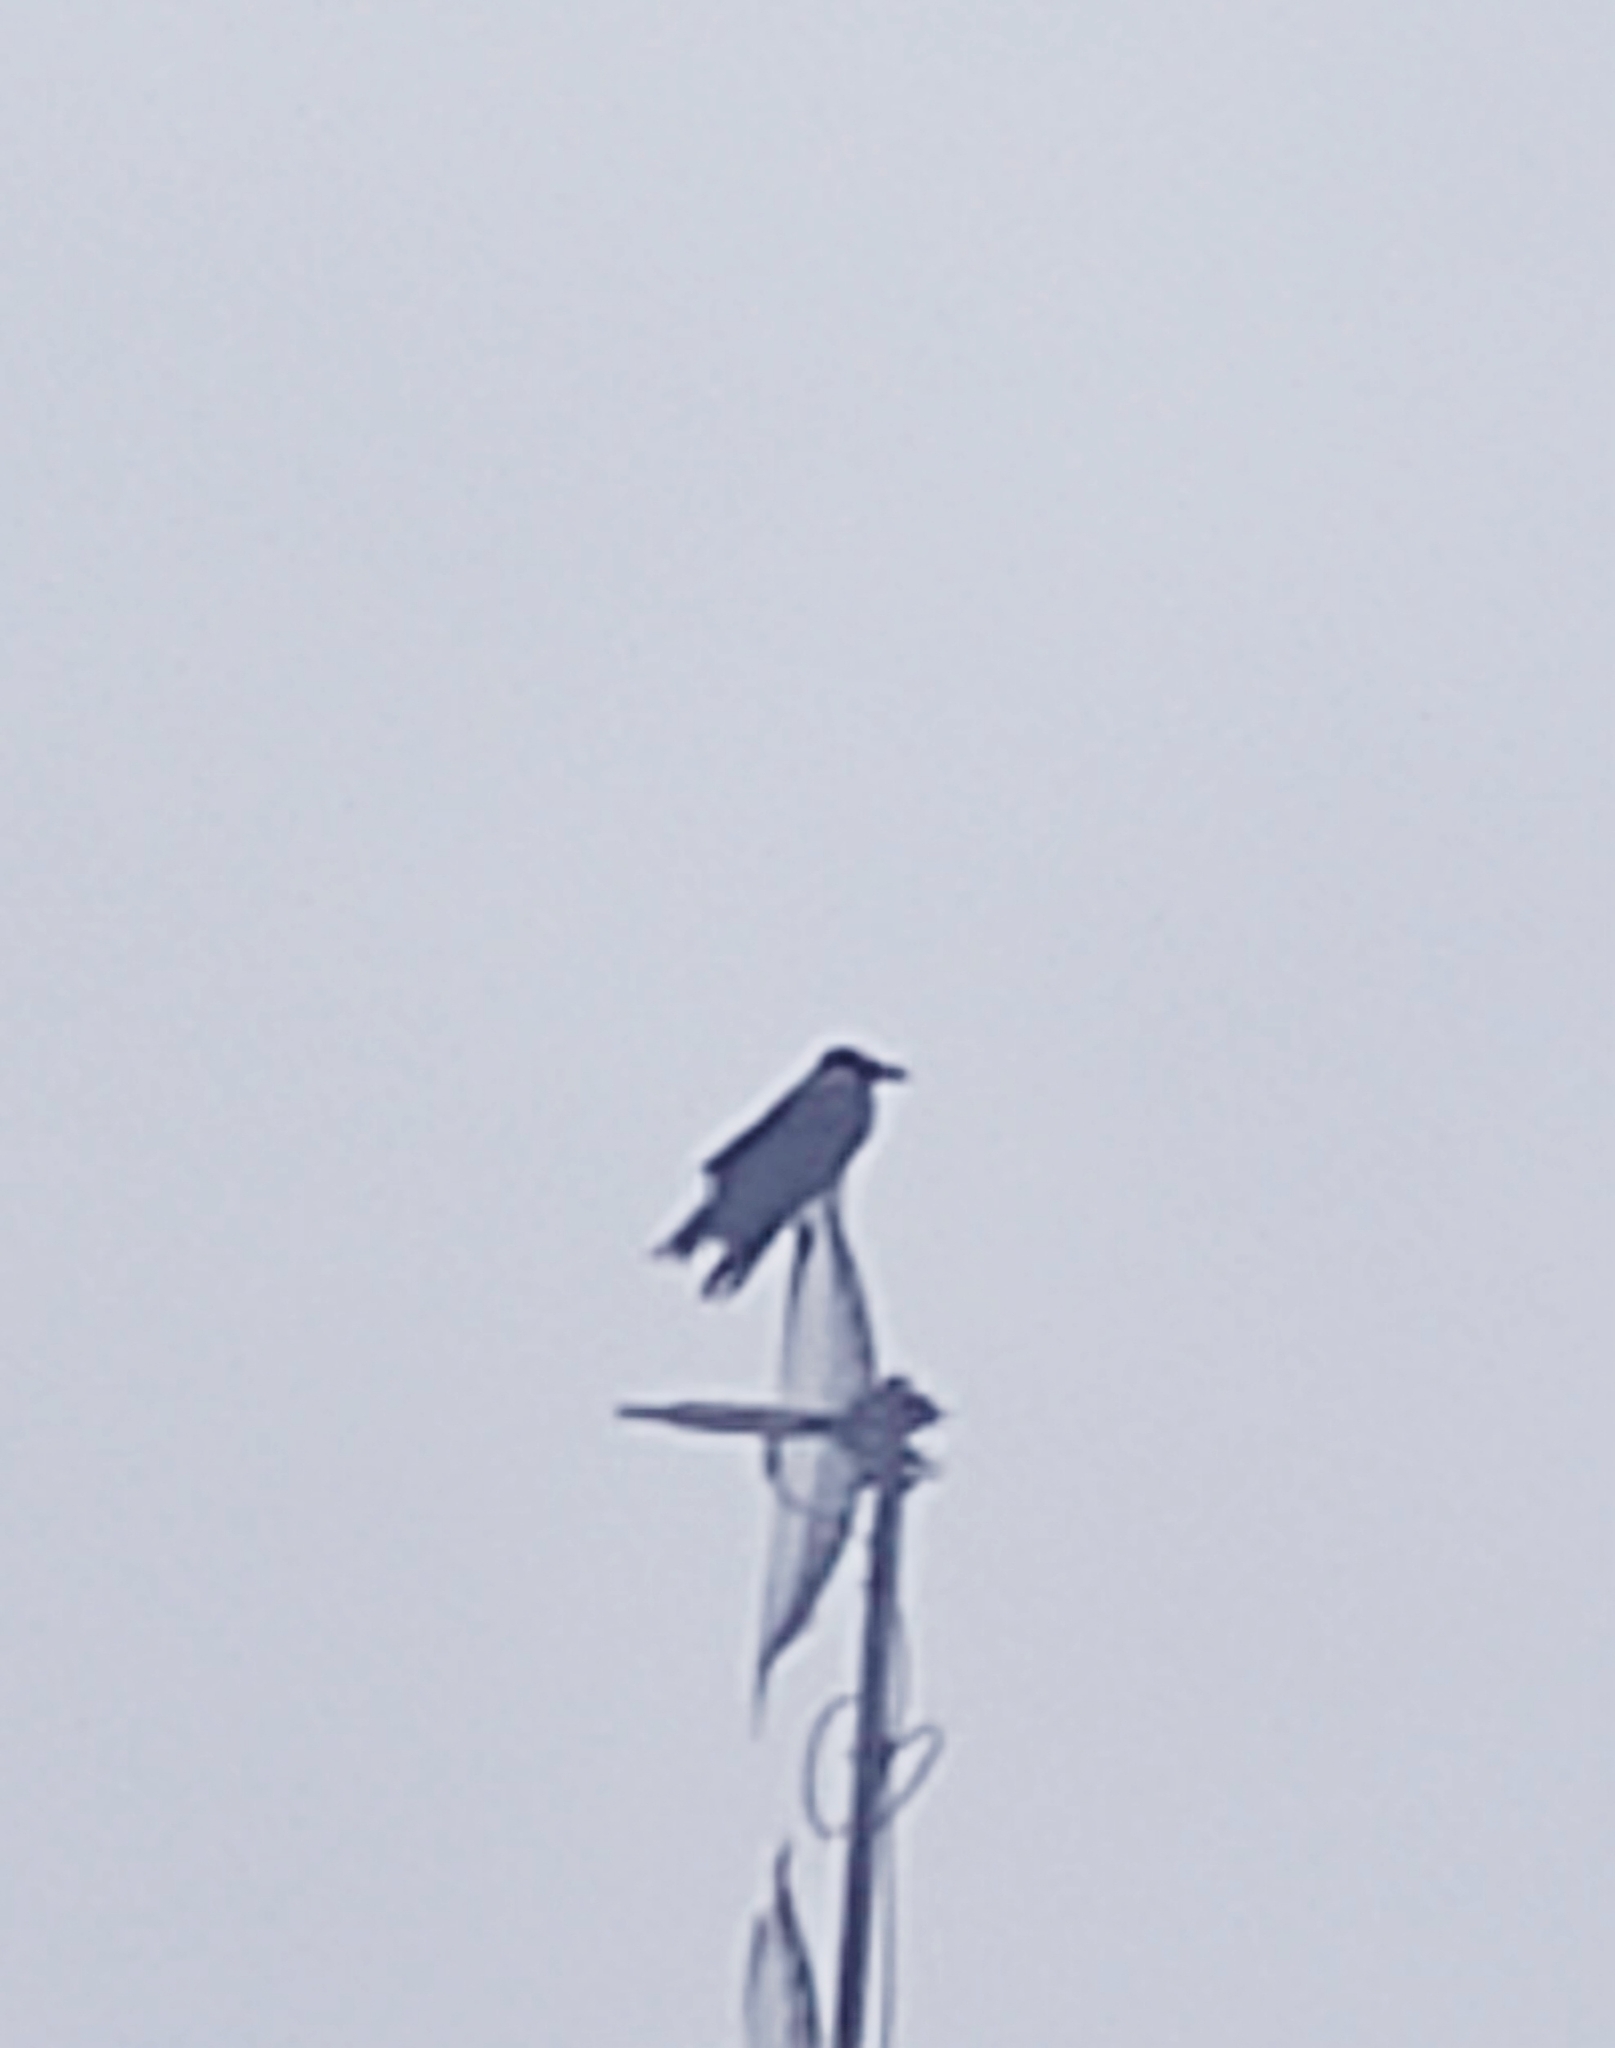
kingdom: Animalia
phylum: Chordata
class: Aves
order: Passeriformes
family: Corvidae
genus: Corvus
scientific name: Corvus cornix
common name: Hooded crow
